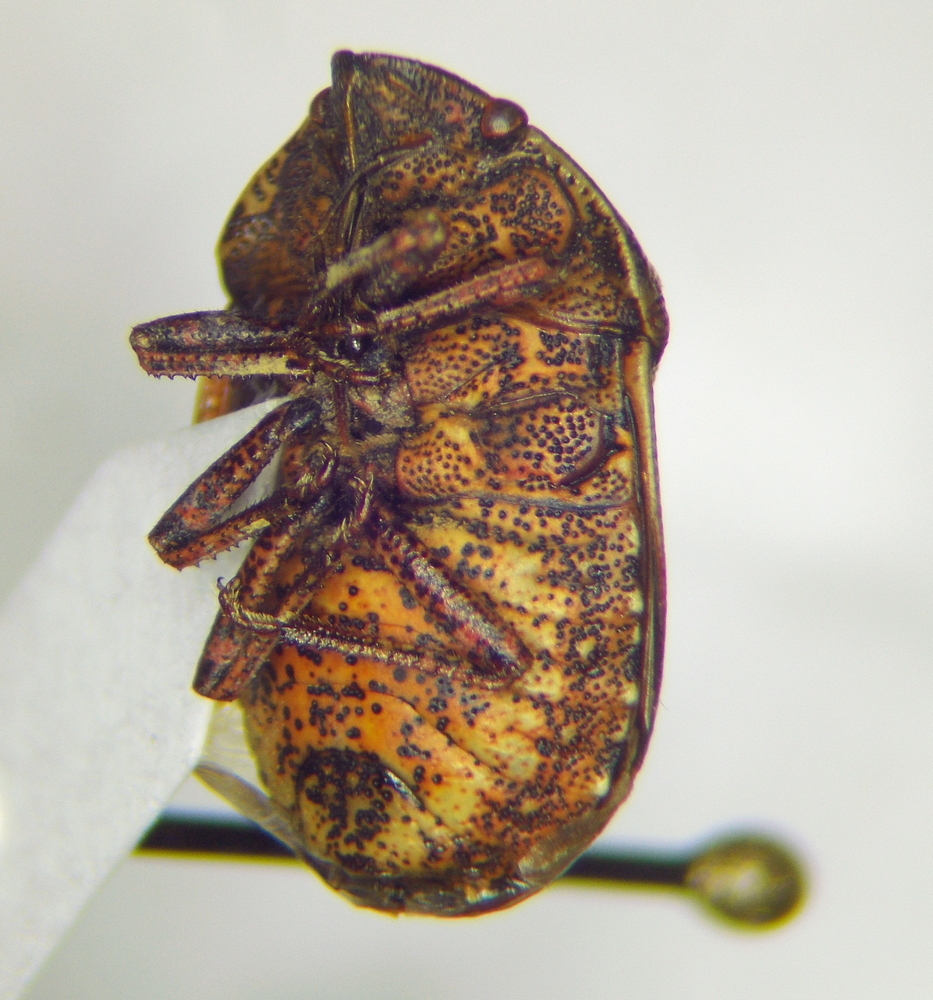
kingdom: Animalia
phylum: Arthropoda
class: Insecta
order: Hemiptera
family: Scutelleridae
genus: Psacasta
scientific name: Psacasta exanthematica
